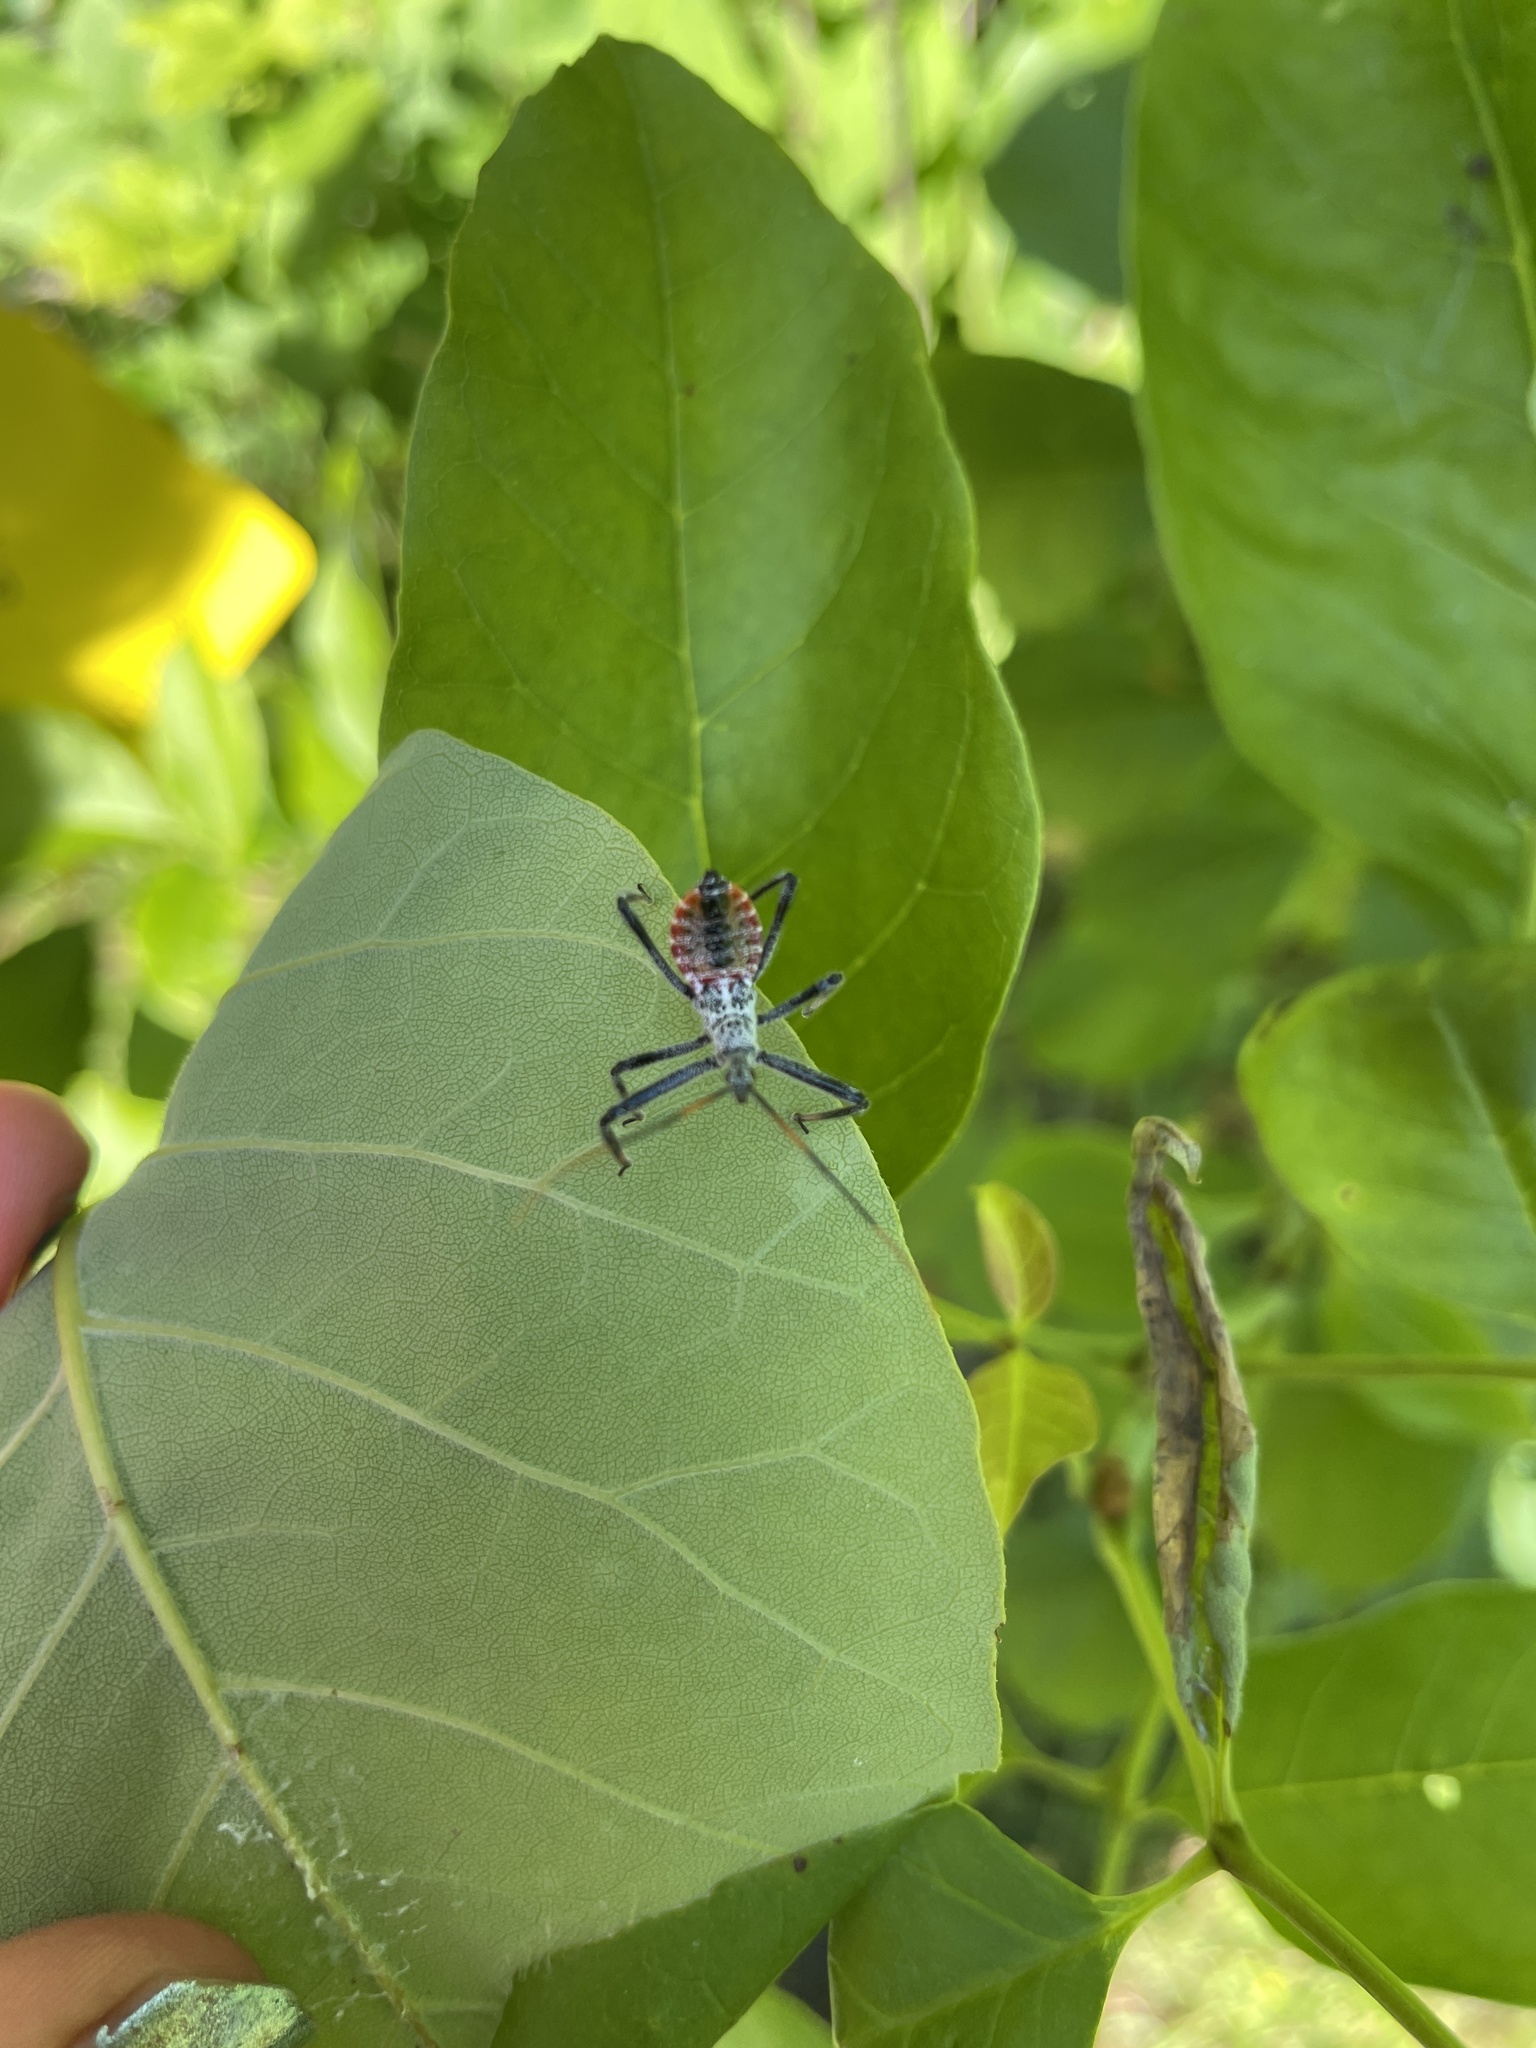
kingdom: Animalia
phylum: Arthropoda
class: Insecta
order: Hemiptera
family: Reduviidae
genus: Arilus
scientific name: Arilus cristatus
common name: North american wheel bug
